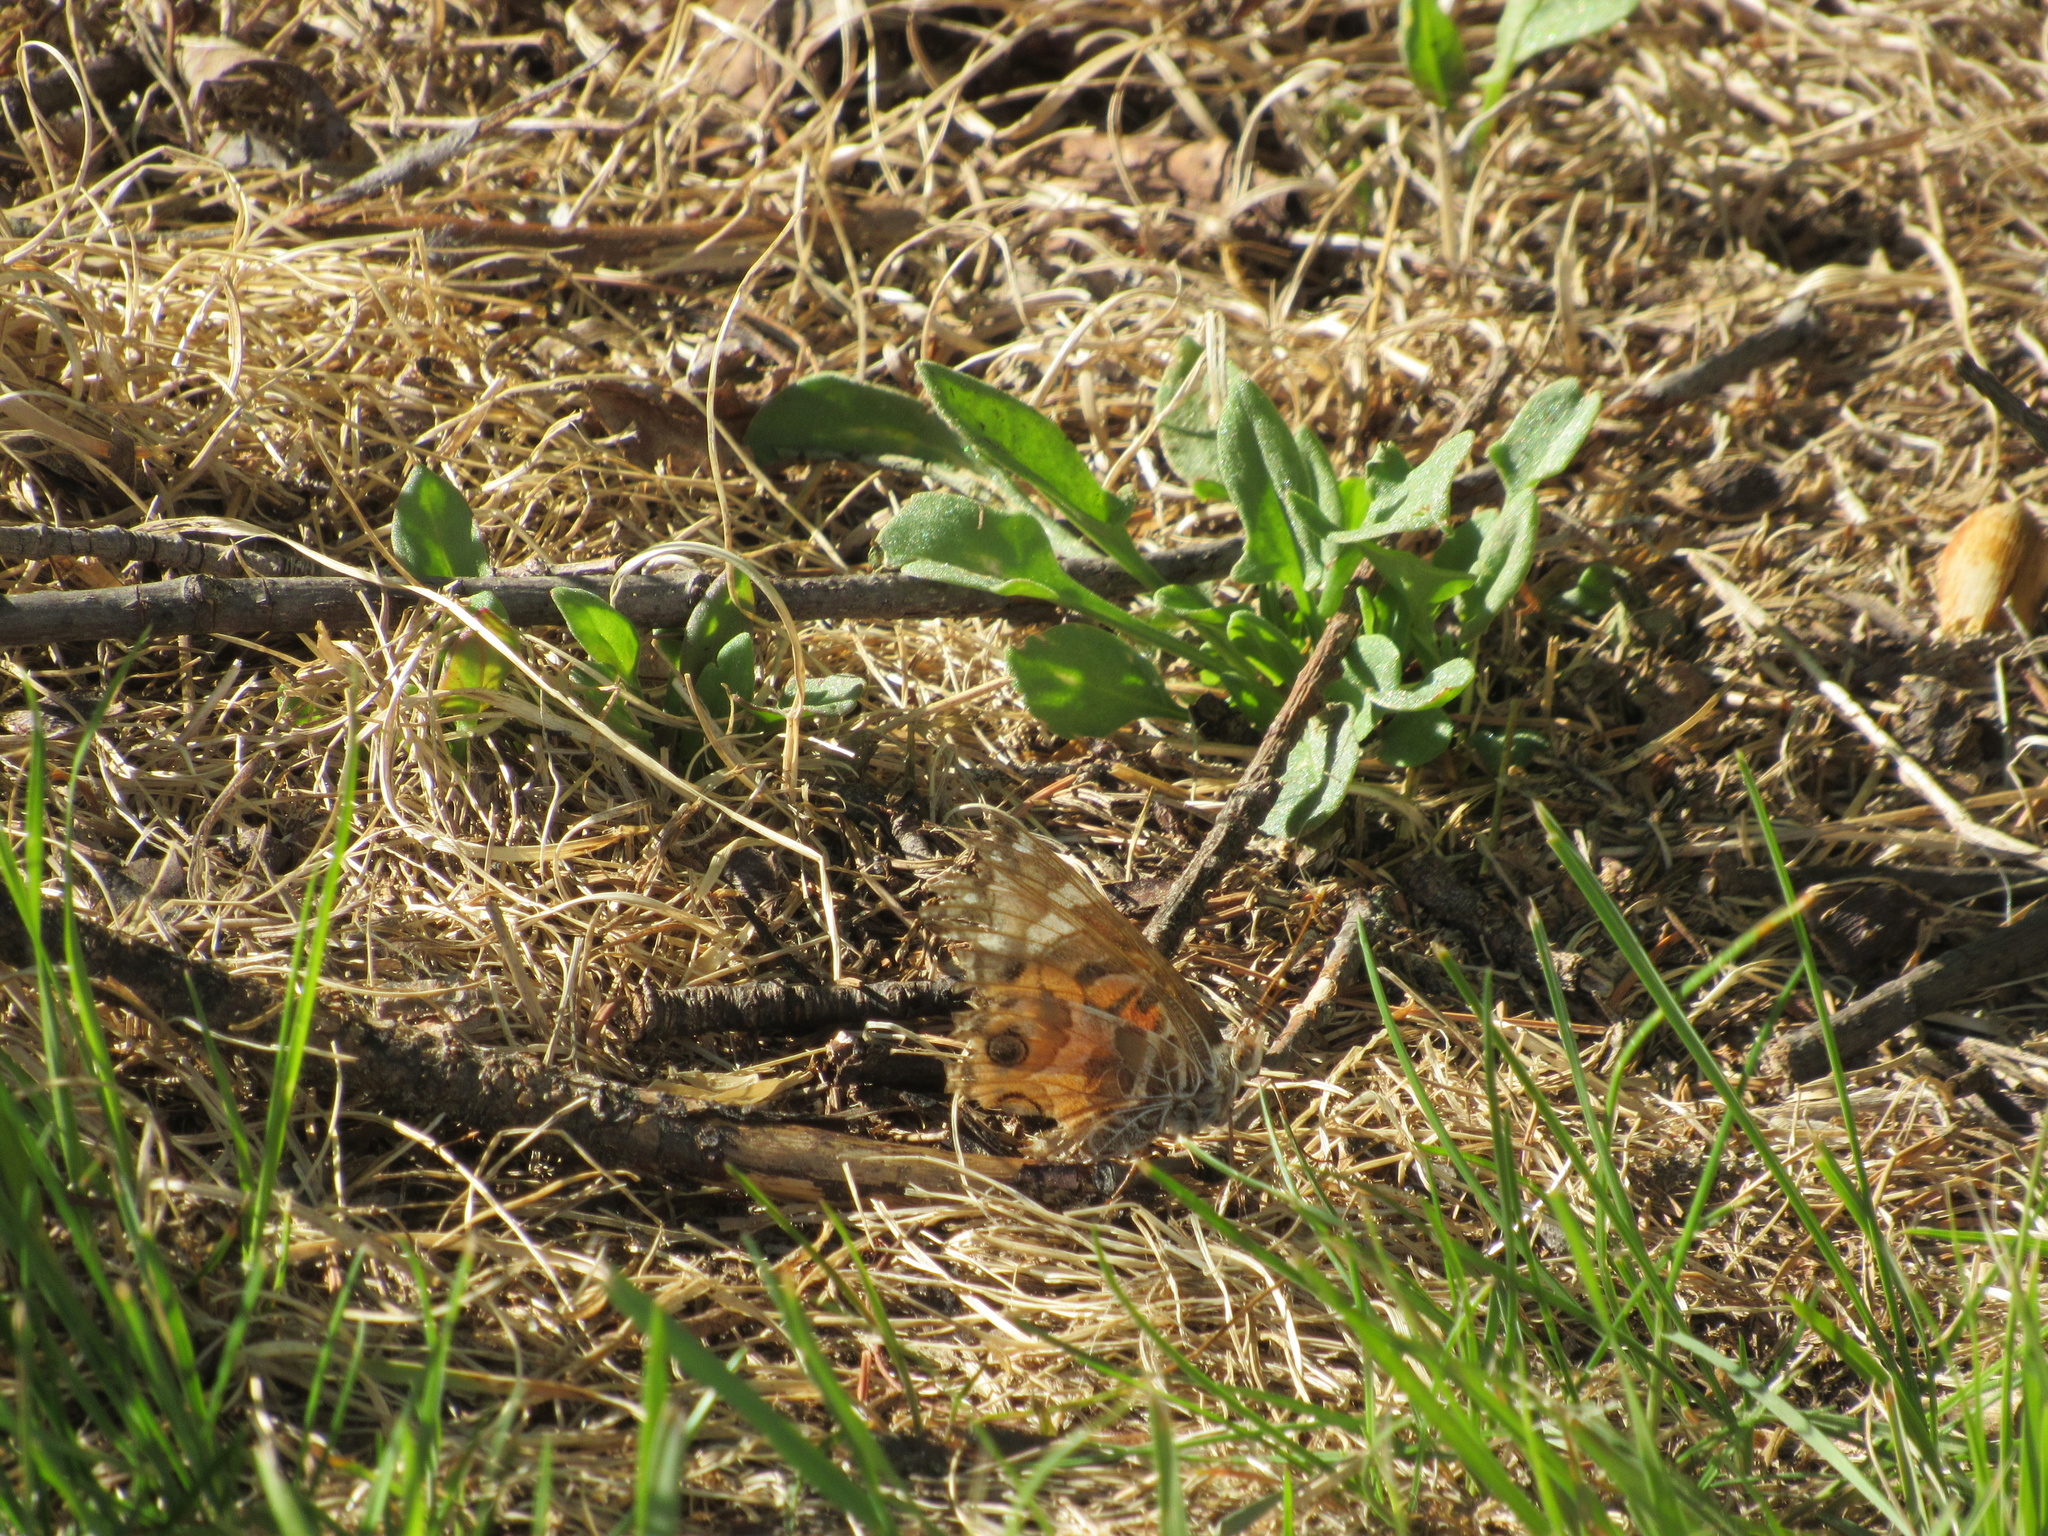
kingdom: Animalia
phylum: Arthropoda
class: Insecta
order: Lepidoptera
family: Nymphalidae
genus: Vanessa
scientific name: Vanessa virginiensis
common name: American lady
